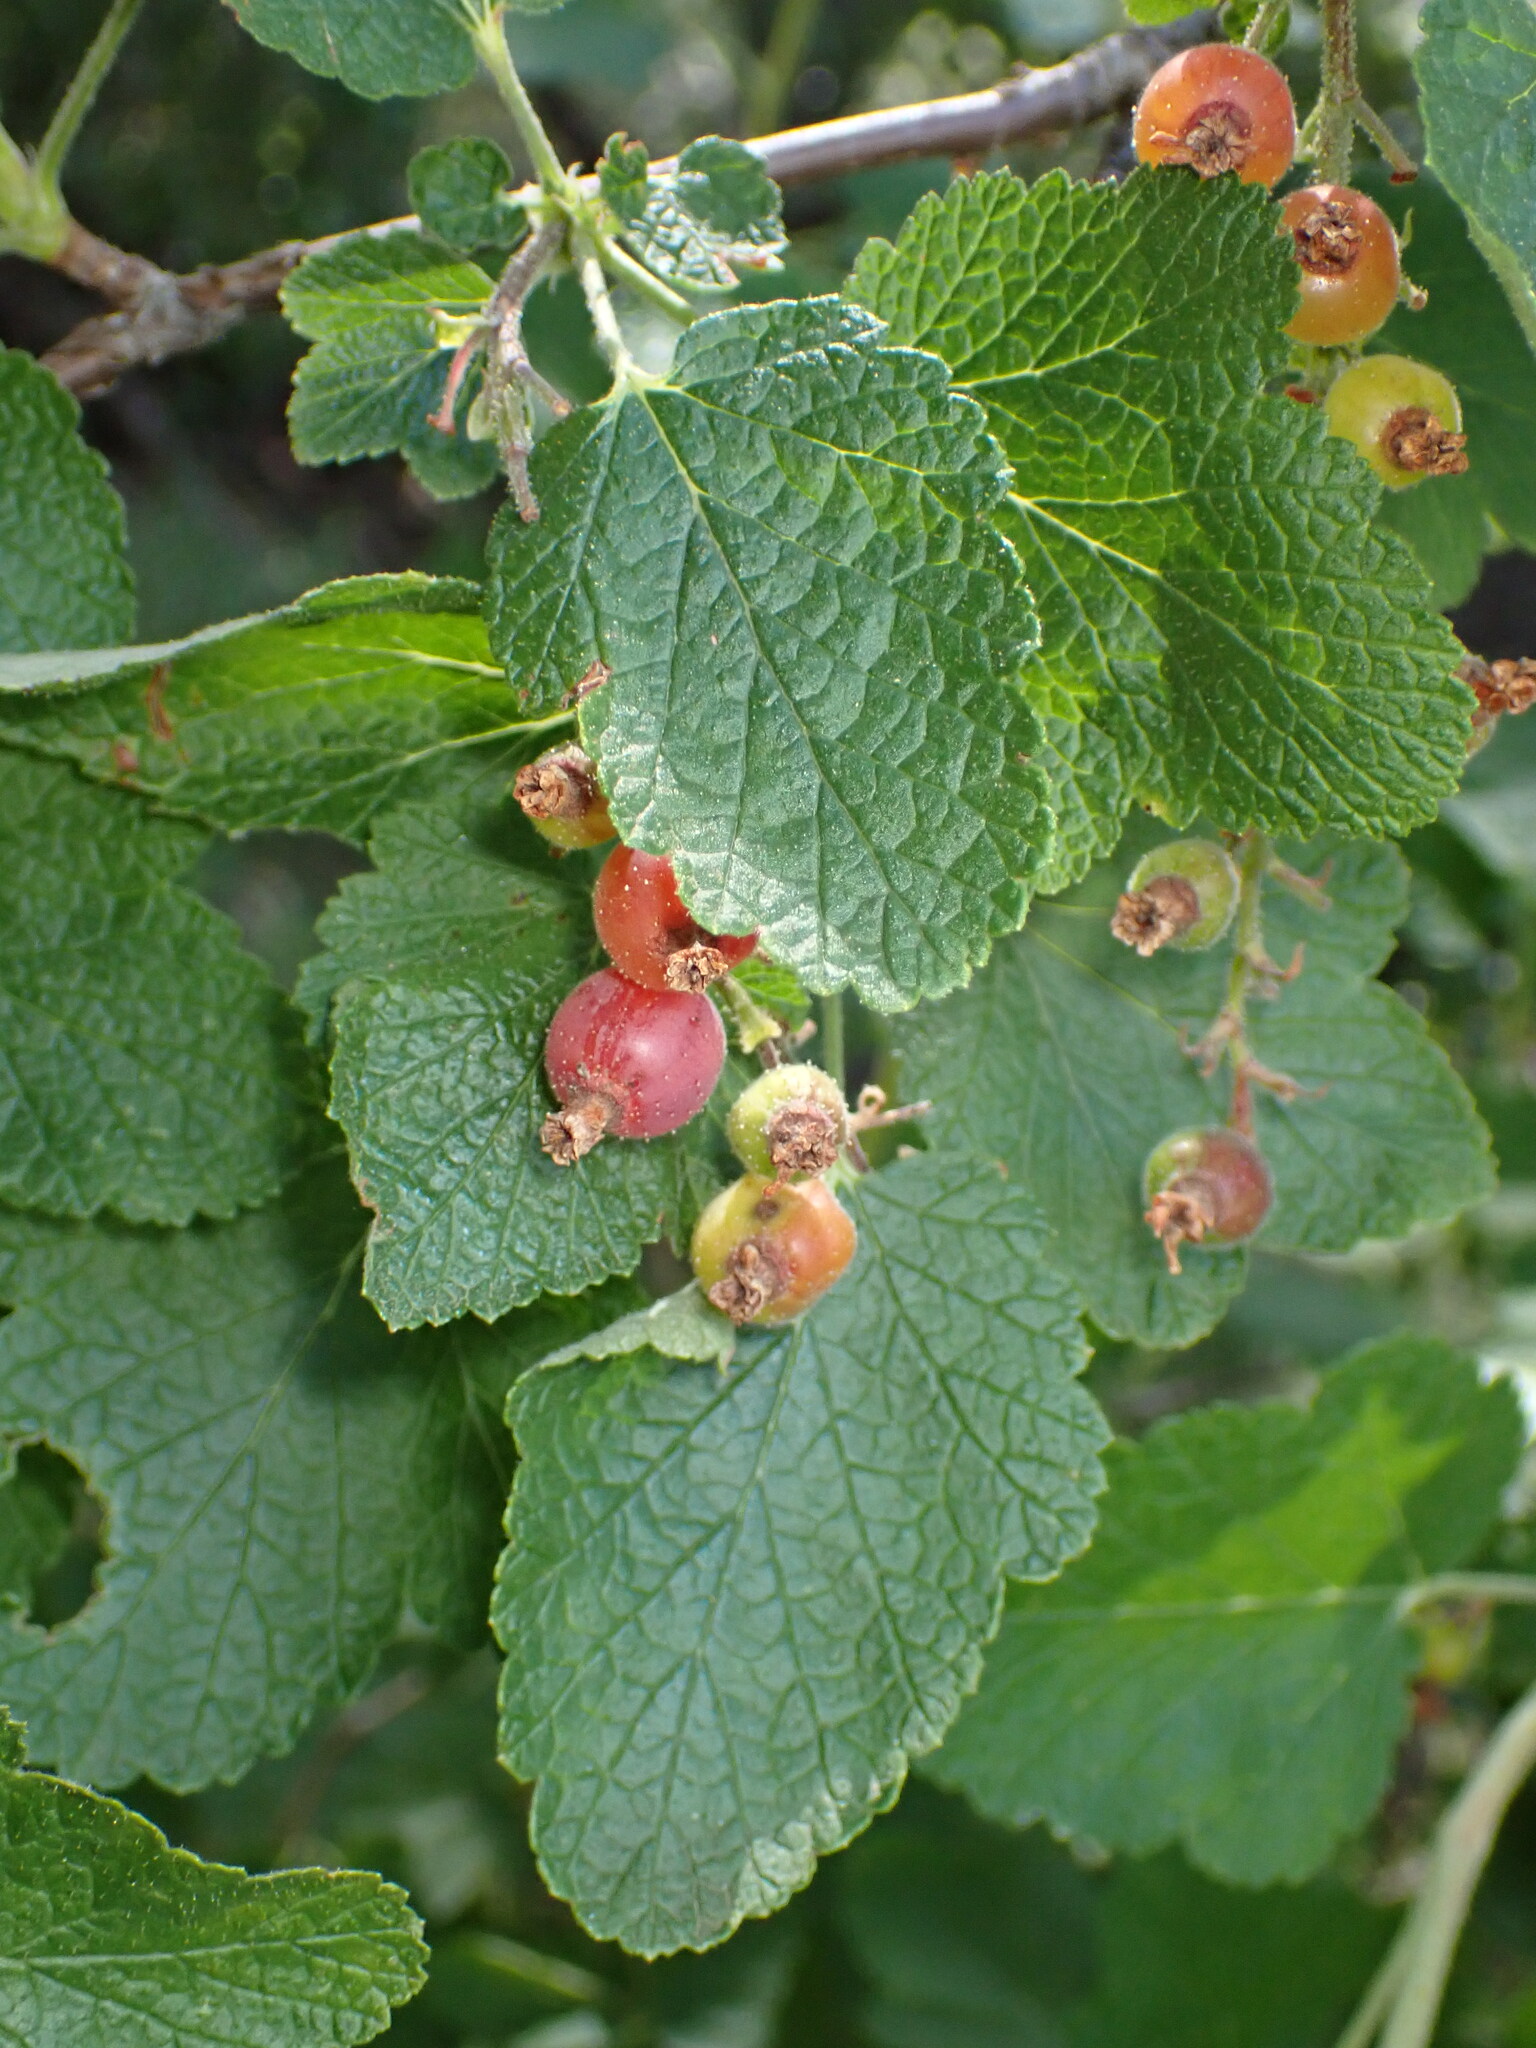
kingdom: Plantae
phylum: Tracheophyta
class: Magnoliopsida
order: Saxifragales
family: Grossulariaceae
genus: Ribes
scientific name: Ribes malvaceum
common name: Chaparral currant
